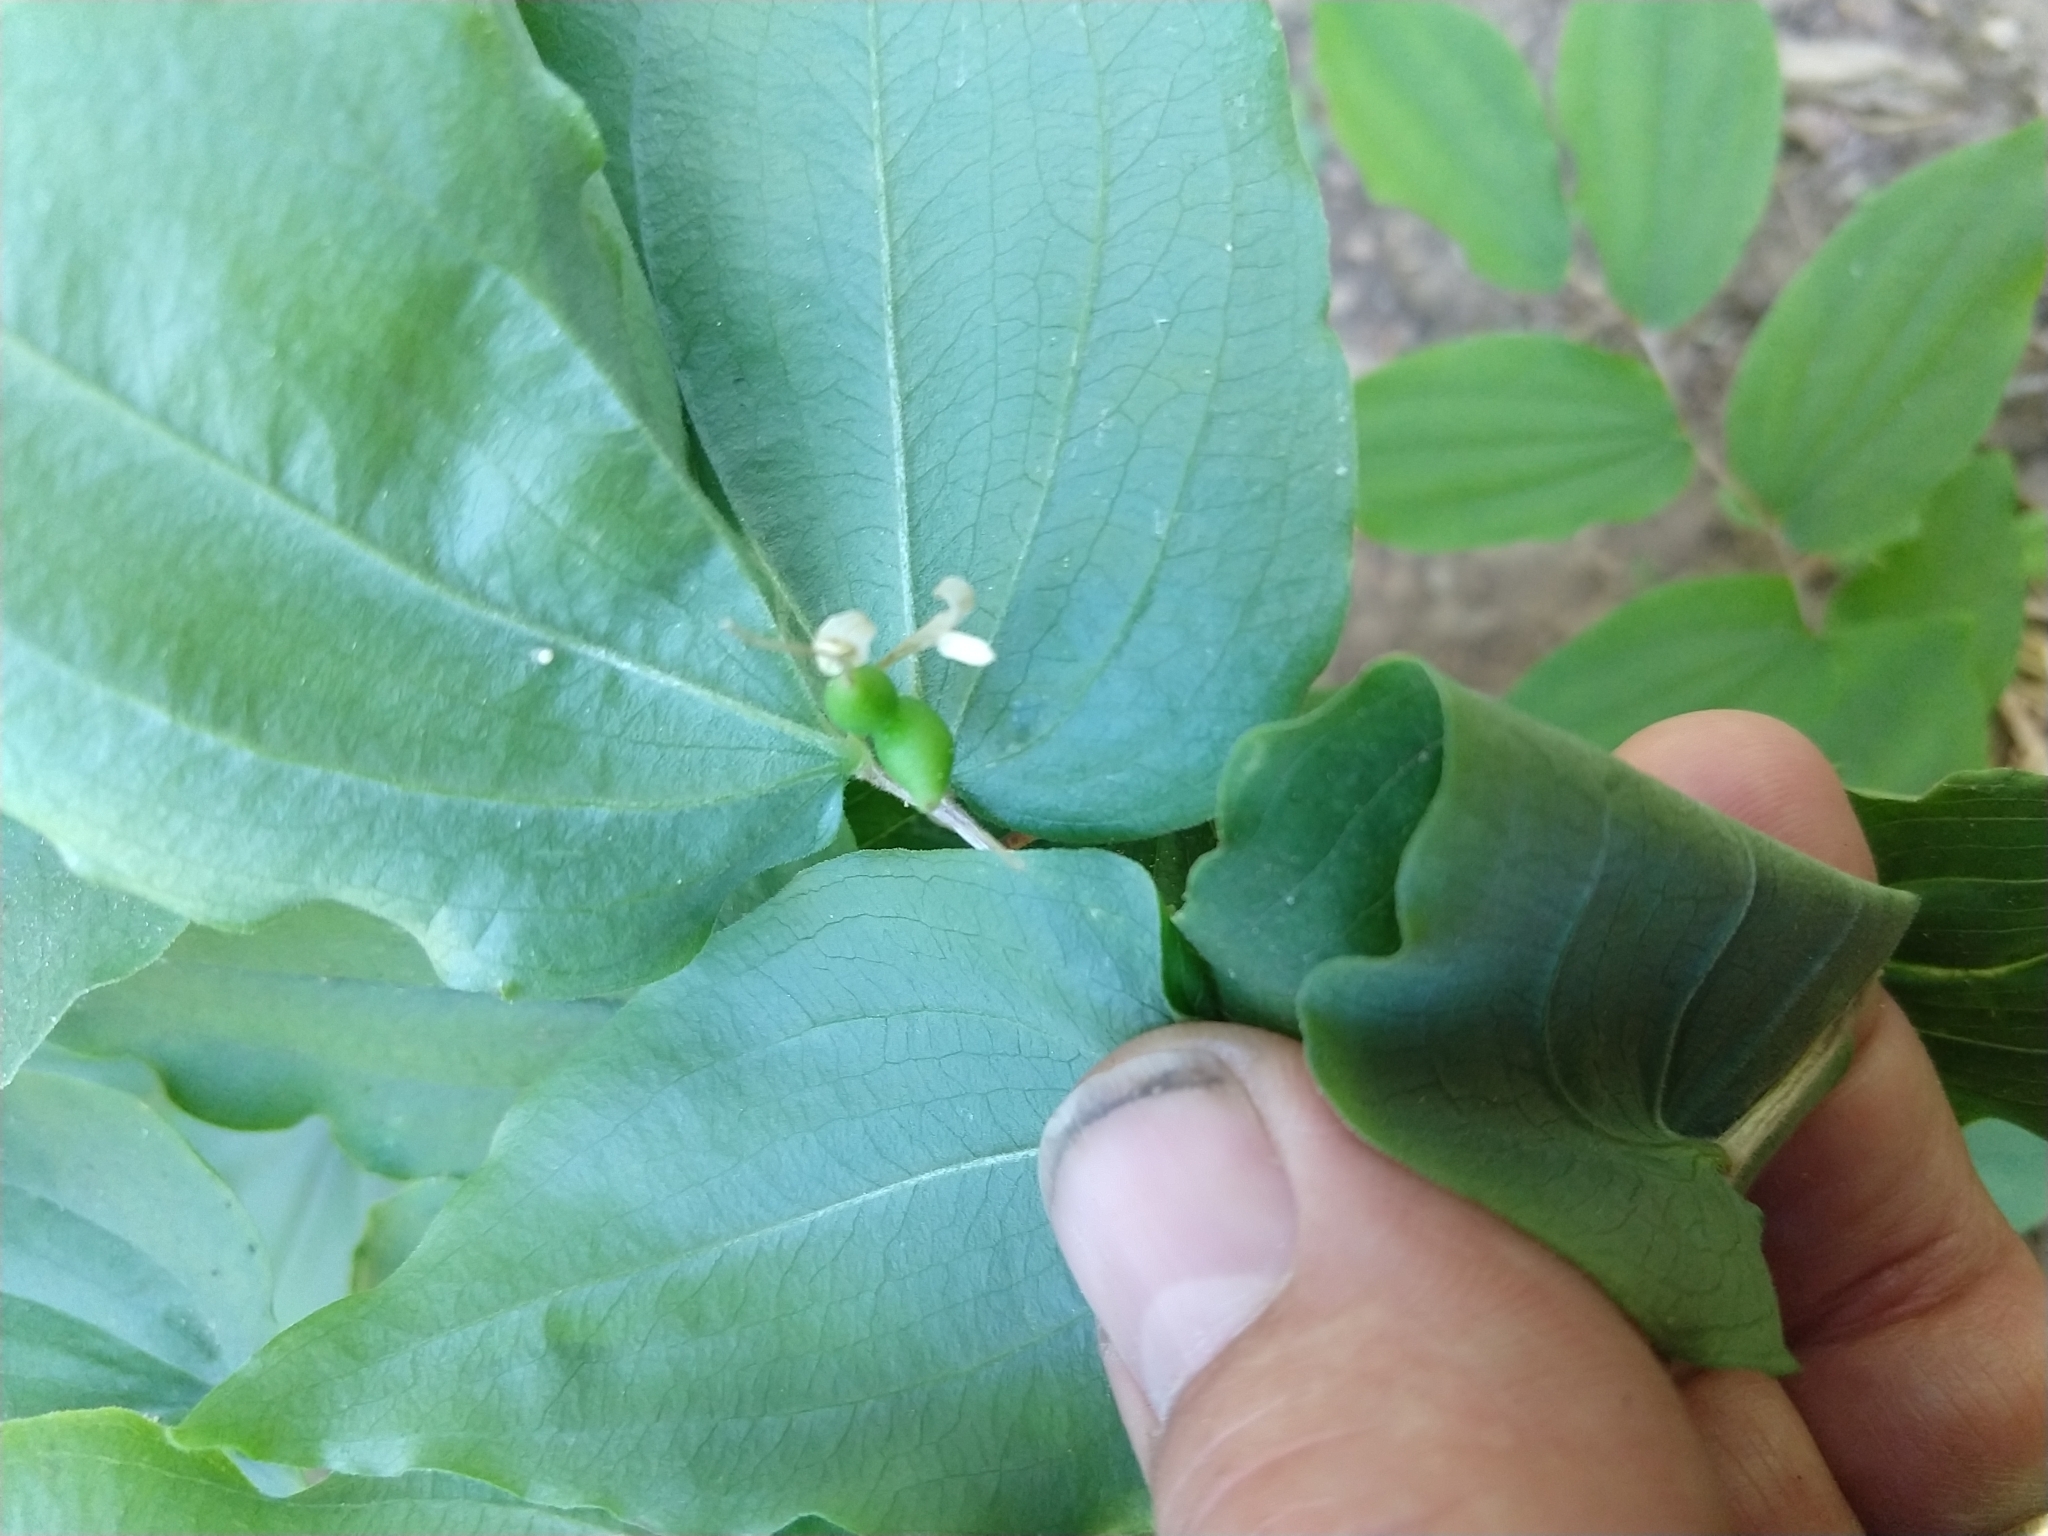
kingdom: Plantae
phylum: Tracheophyta
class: Liliopsida
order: Liliales
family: Liliaceae
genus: Prosartes
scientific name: Prosartes hookeri
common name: Fairy-bells
